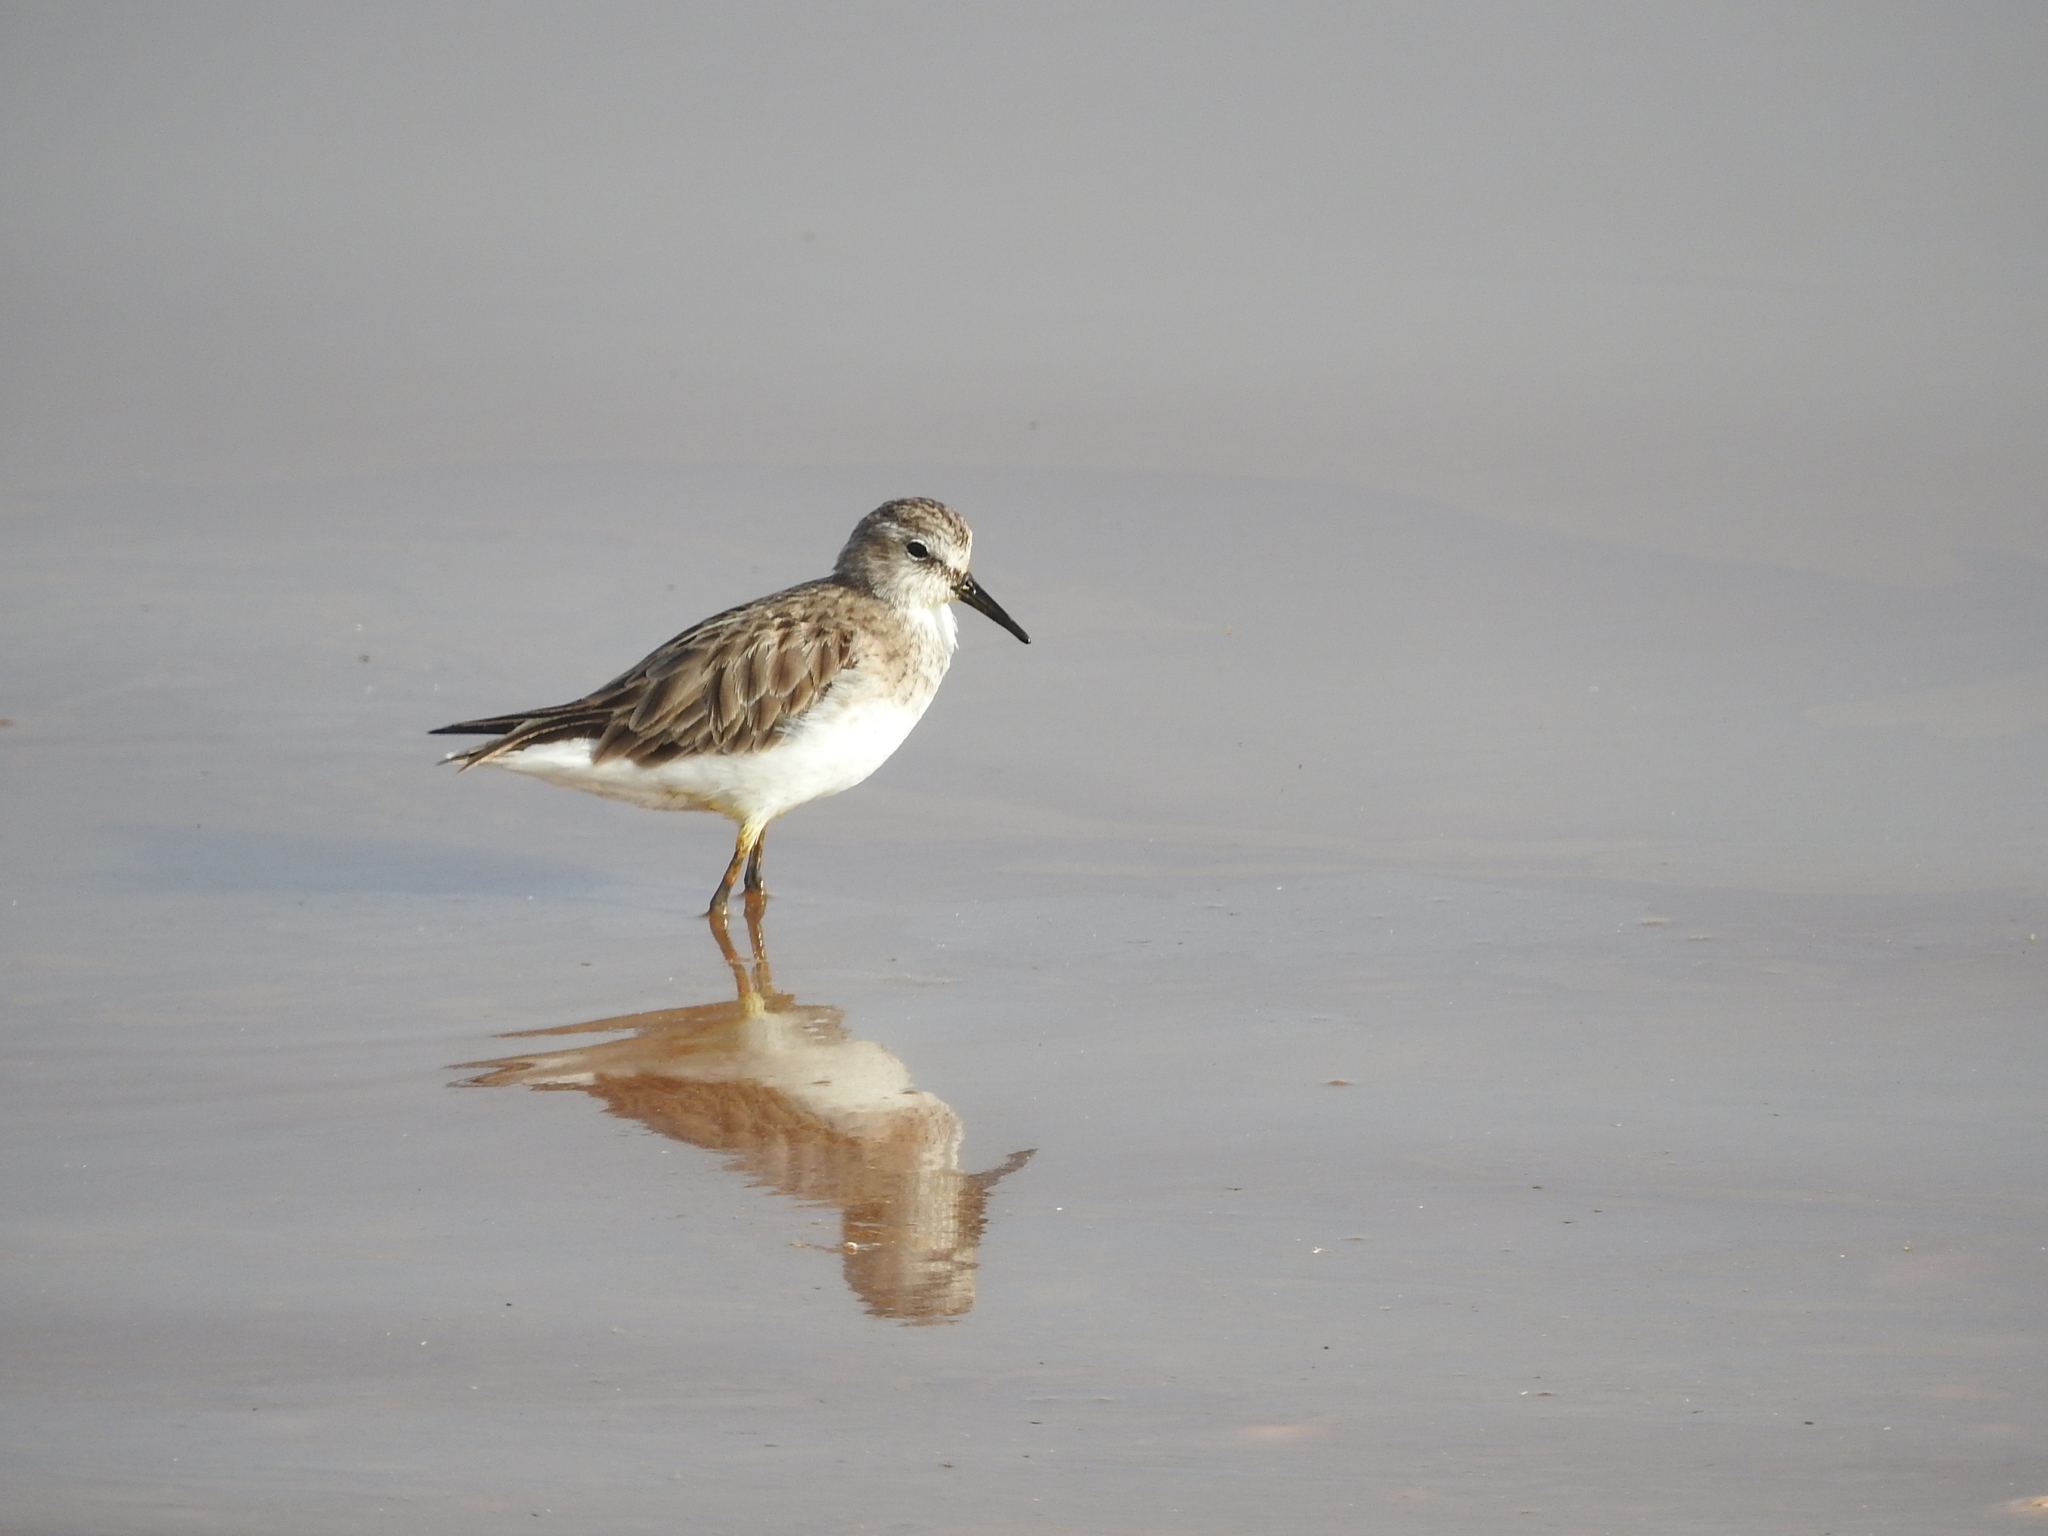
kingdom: Animalia
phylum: Chordata
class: Aves
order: Charadriiformes
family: Scolopacidae
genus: Calidris
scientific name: Calidris minuta
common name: Little stint
